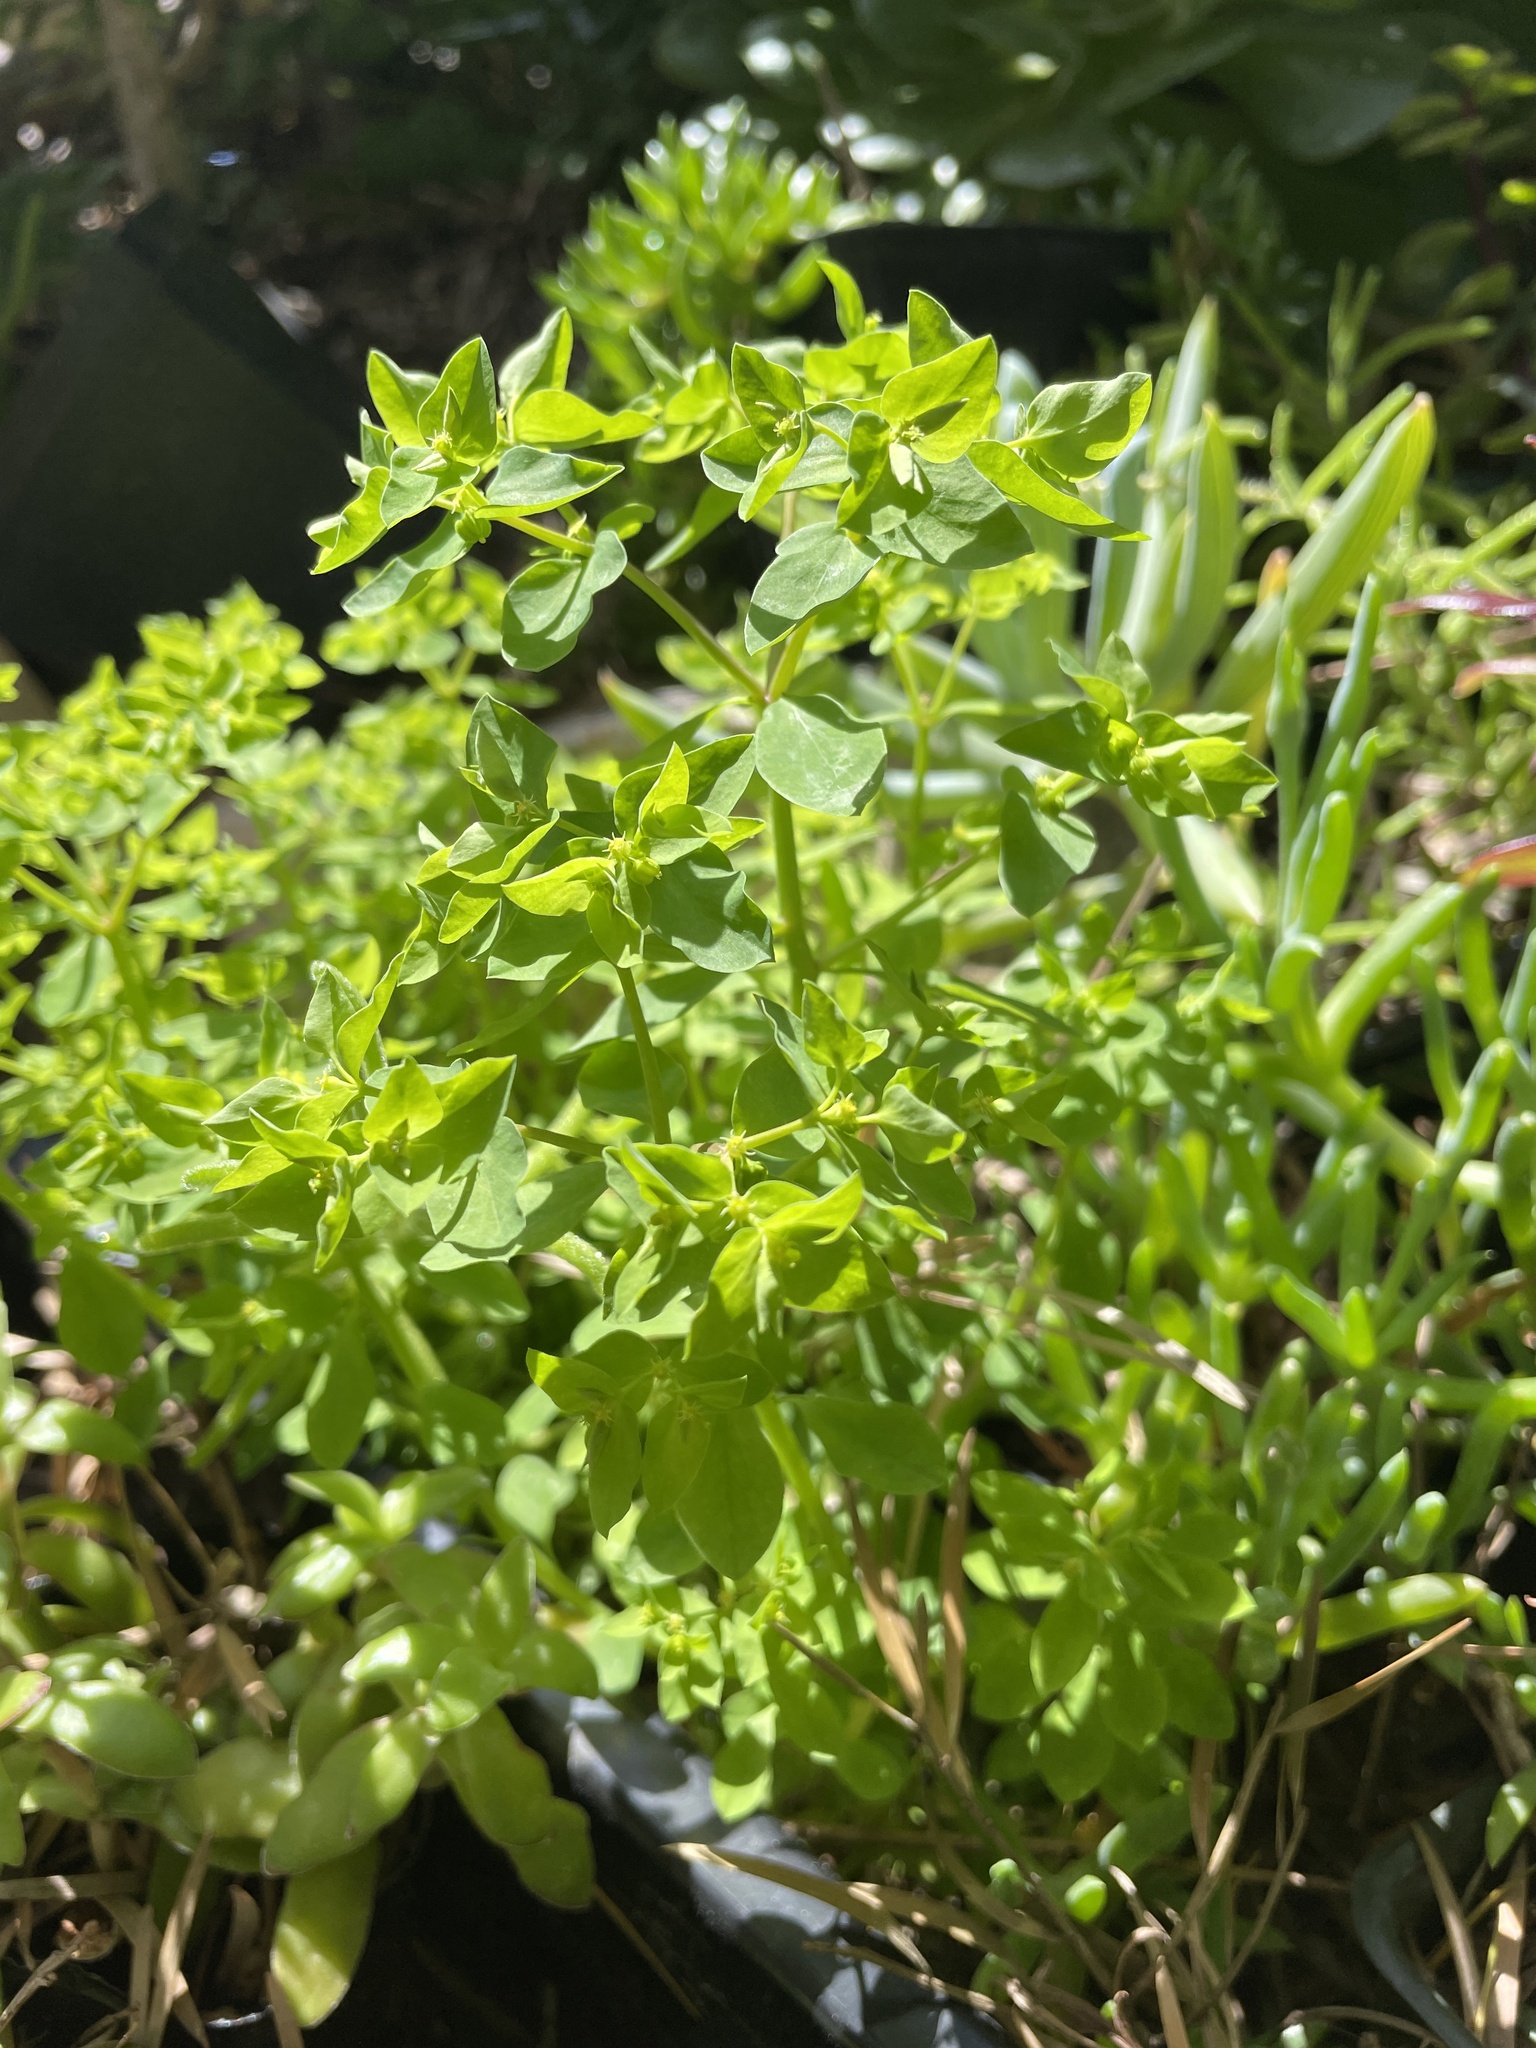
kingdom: Plantae
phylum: Tracheophyta
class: Magnoliopsida
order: Malpighiales
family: Euphorbiaceae
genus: Euphorbia
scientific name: Euphorbia peplus
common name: Petty spurge
